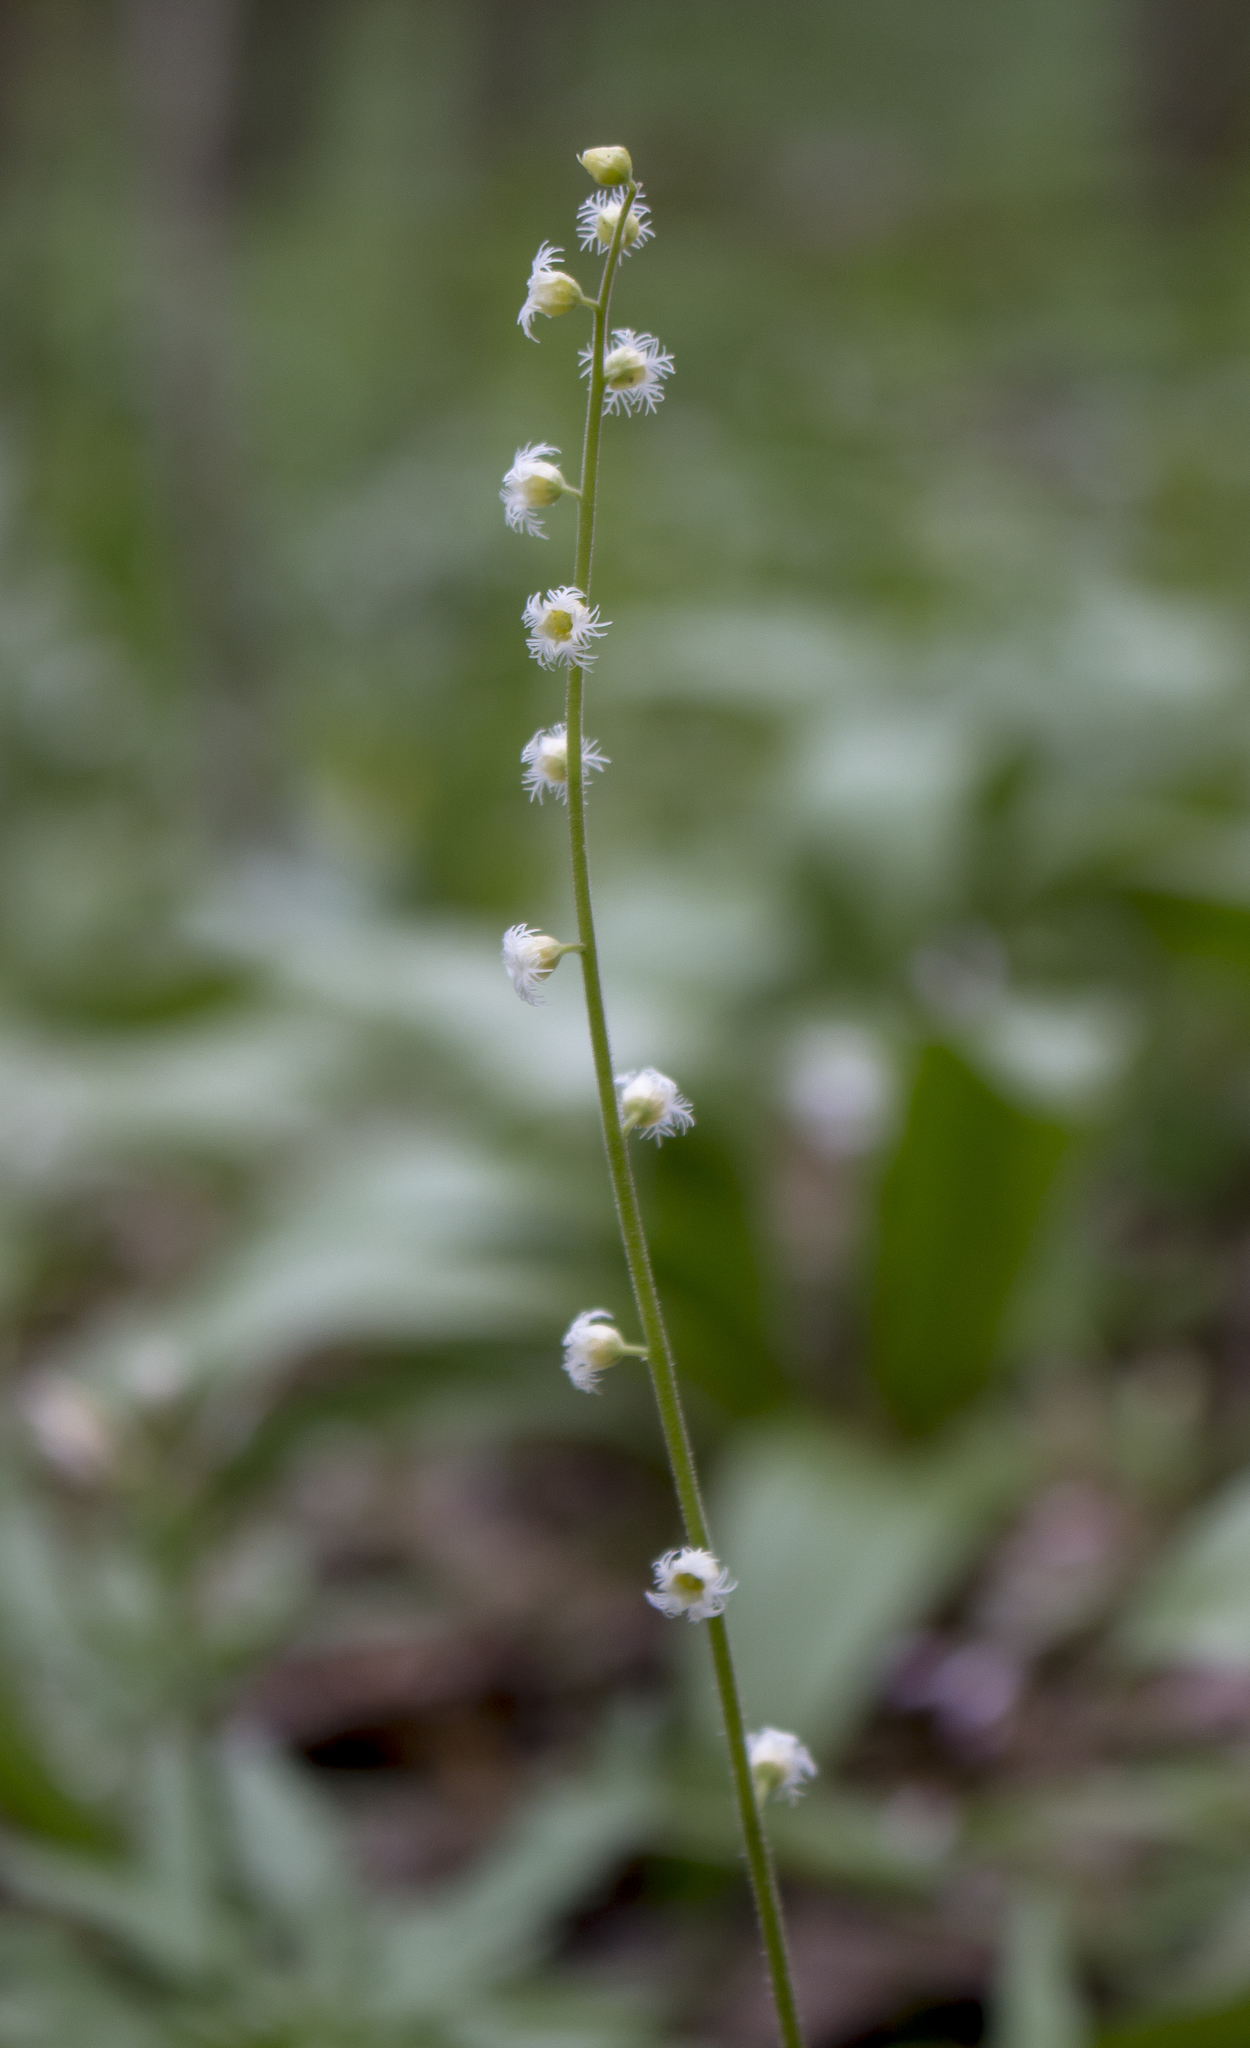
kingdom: Plantae
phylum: Tracheophyta
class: Magnoliopsida
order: Saxifragales
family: Saxifragaceae
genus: Mitella
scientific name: Mitella diphylla
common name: Coolwort
